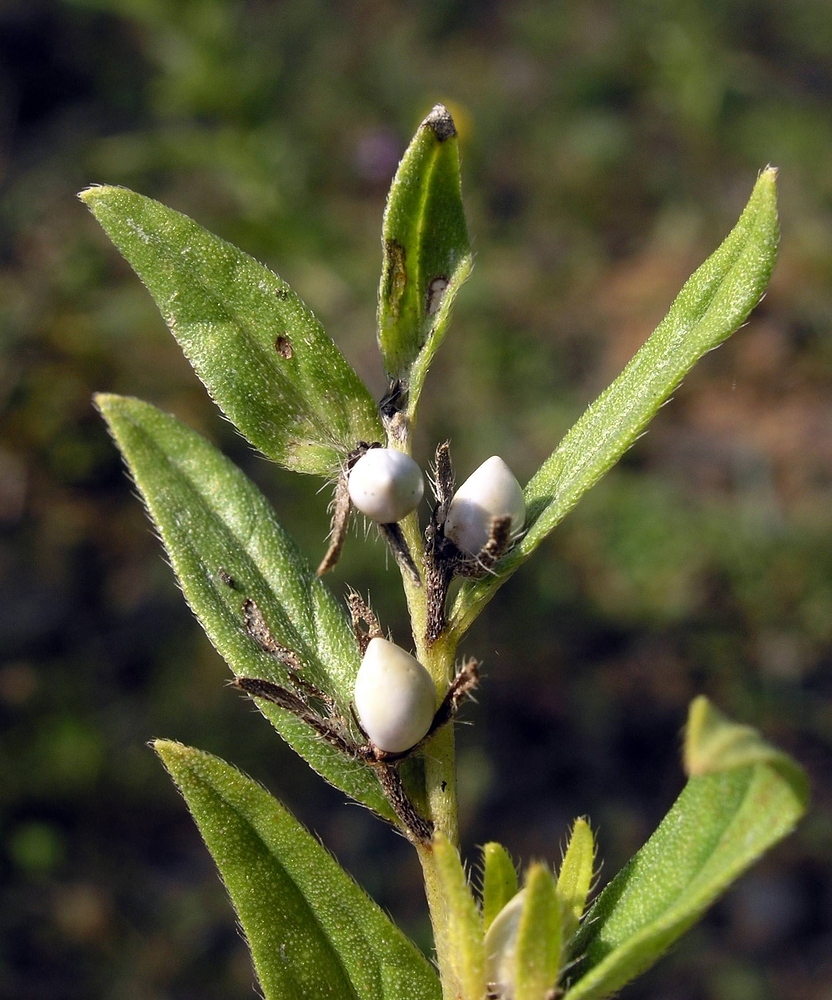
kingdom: Plantae
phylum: Tracheophyta
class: Magnoliopsida
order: Boraginales
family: Boraginaceae
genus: Lithospermum
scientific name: Lithospermum officinale
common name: Common gromwell
